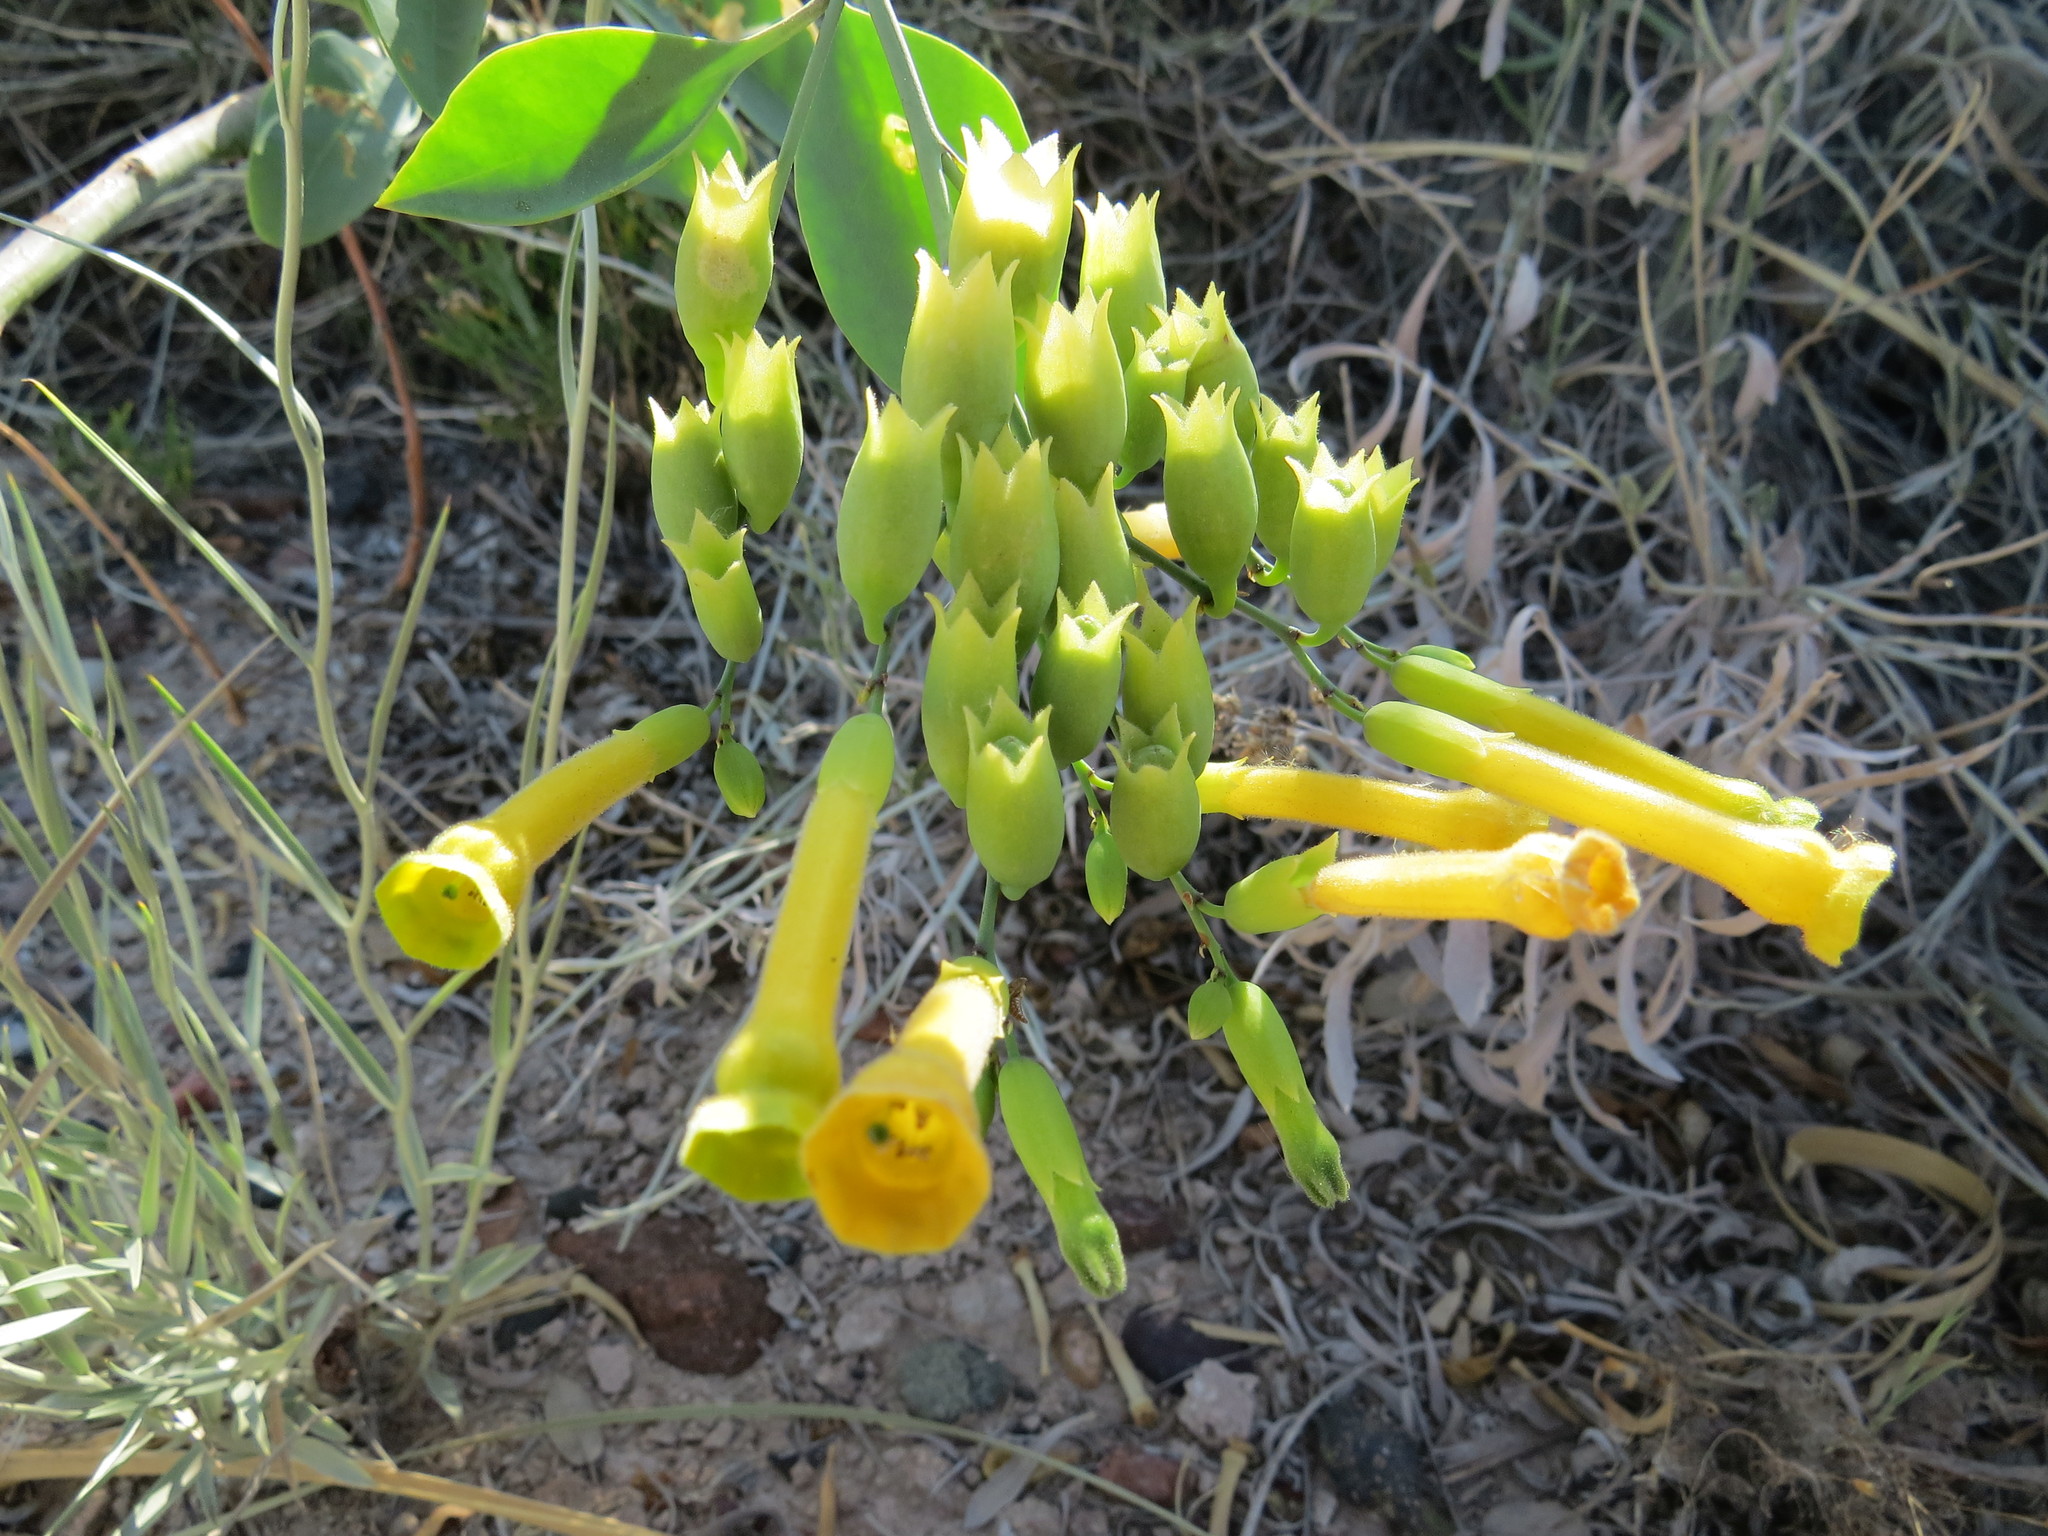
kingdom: Plantae
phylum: Tracheophyta
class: Magnoliopsida
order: Solanales
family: Solanaceae
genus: Nicotiana
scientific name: Nicotiana glauca
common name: Tree tobacco
